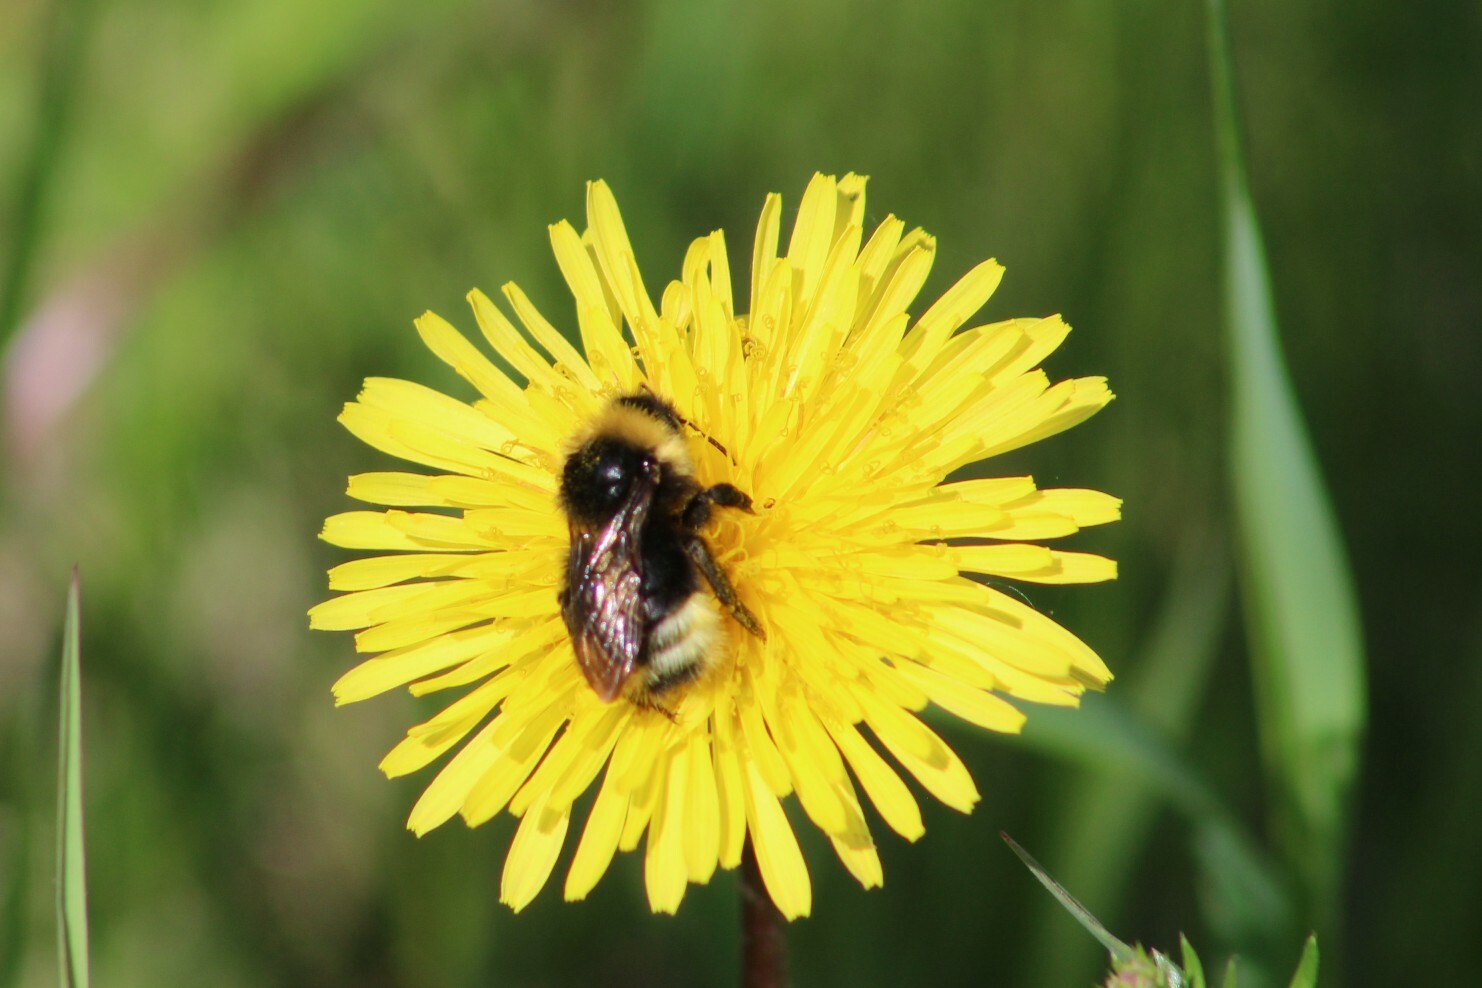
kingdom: Animalia
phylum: Arthropoda
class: Insecta
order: Hymenoptera
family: Apidae
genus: Bombus
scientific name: Bombus sylvestris
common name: Forest cuckoo bee
